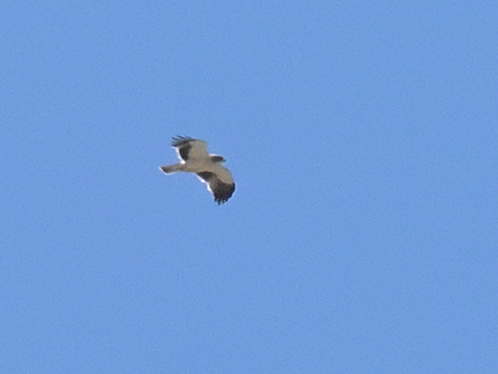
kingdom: Animalia
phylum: Chordata
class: Aves
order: Accipitriformes
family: Accipitridae
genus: Hieraaetus
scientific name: Hieraaetus pennatus
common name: Booted eagle
